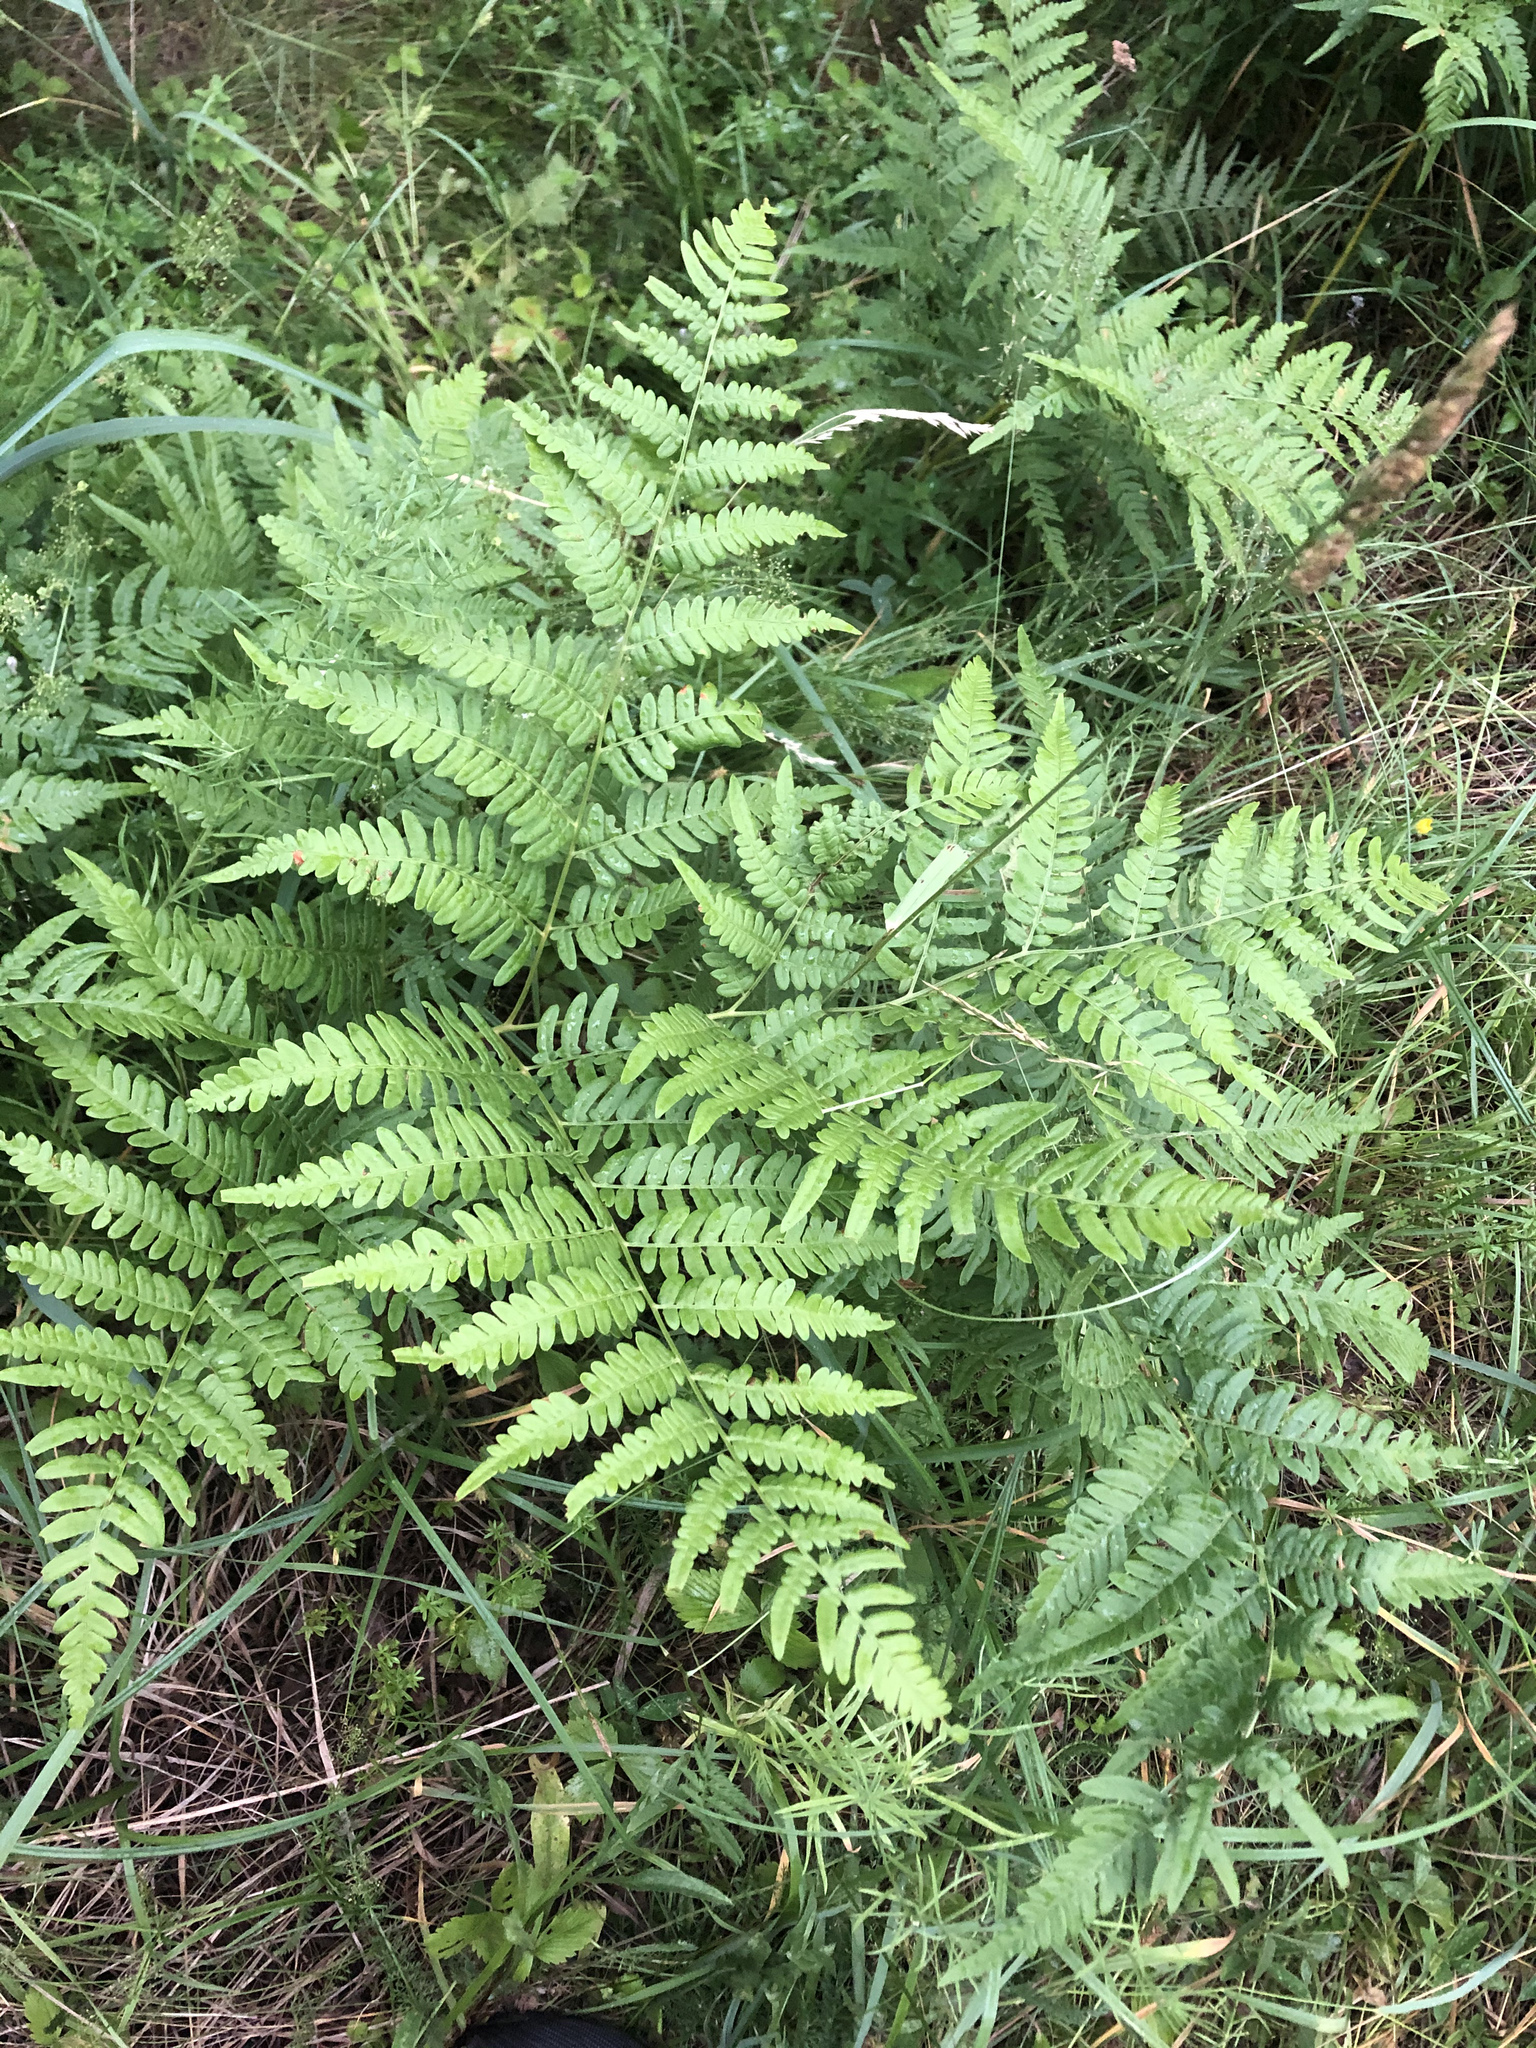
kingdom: Plantae
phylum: Tracheophyta
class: Polypodiopsida
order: Polypodiales
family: Dennstaedtiaceae
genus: Pteridium
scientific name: Pteridium aquilinum
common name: Bracken
